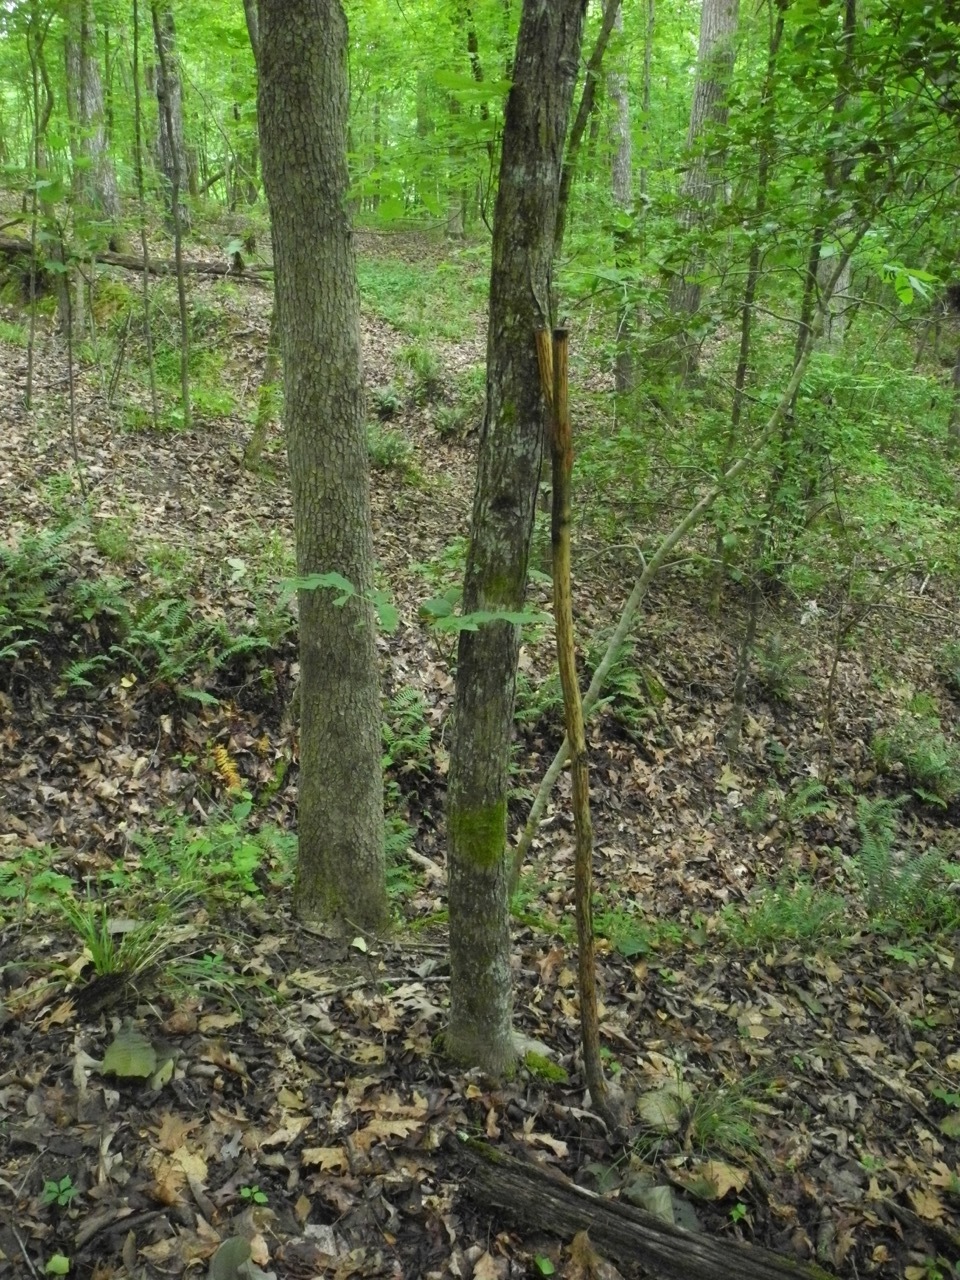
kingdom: Plantae
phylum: Tracheophyta
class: Magnoliopsida
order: Fagales
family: Juglandaceae
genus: Carya
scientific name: Carya ovata
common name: Shagbark hickory
